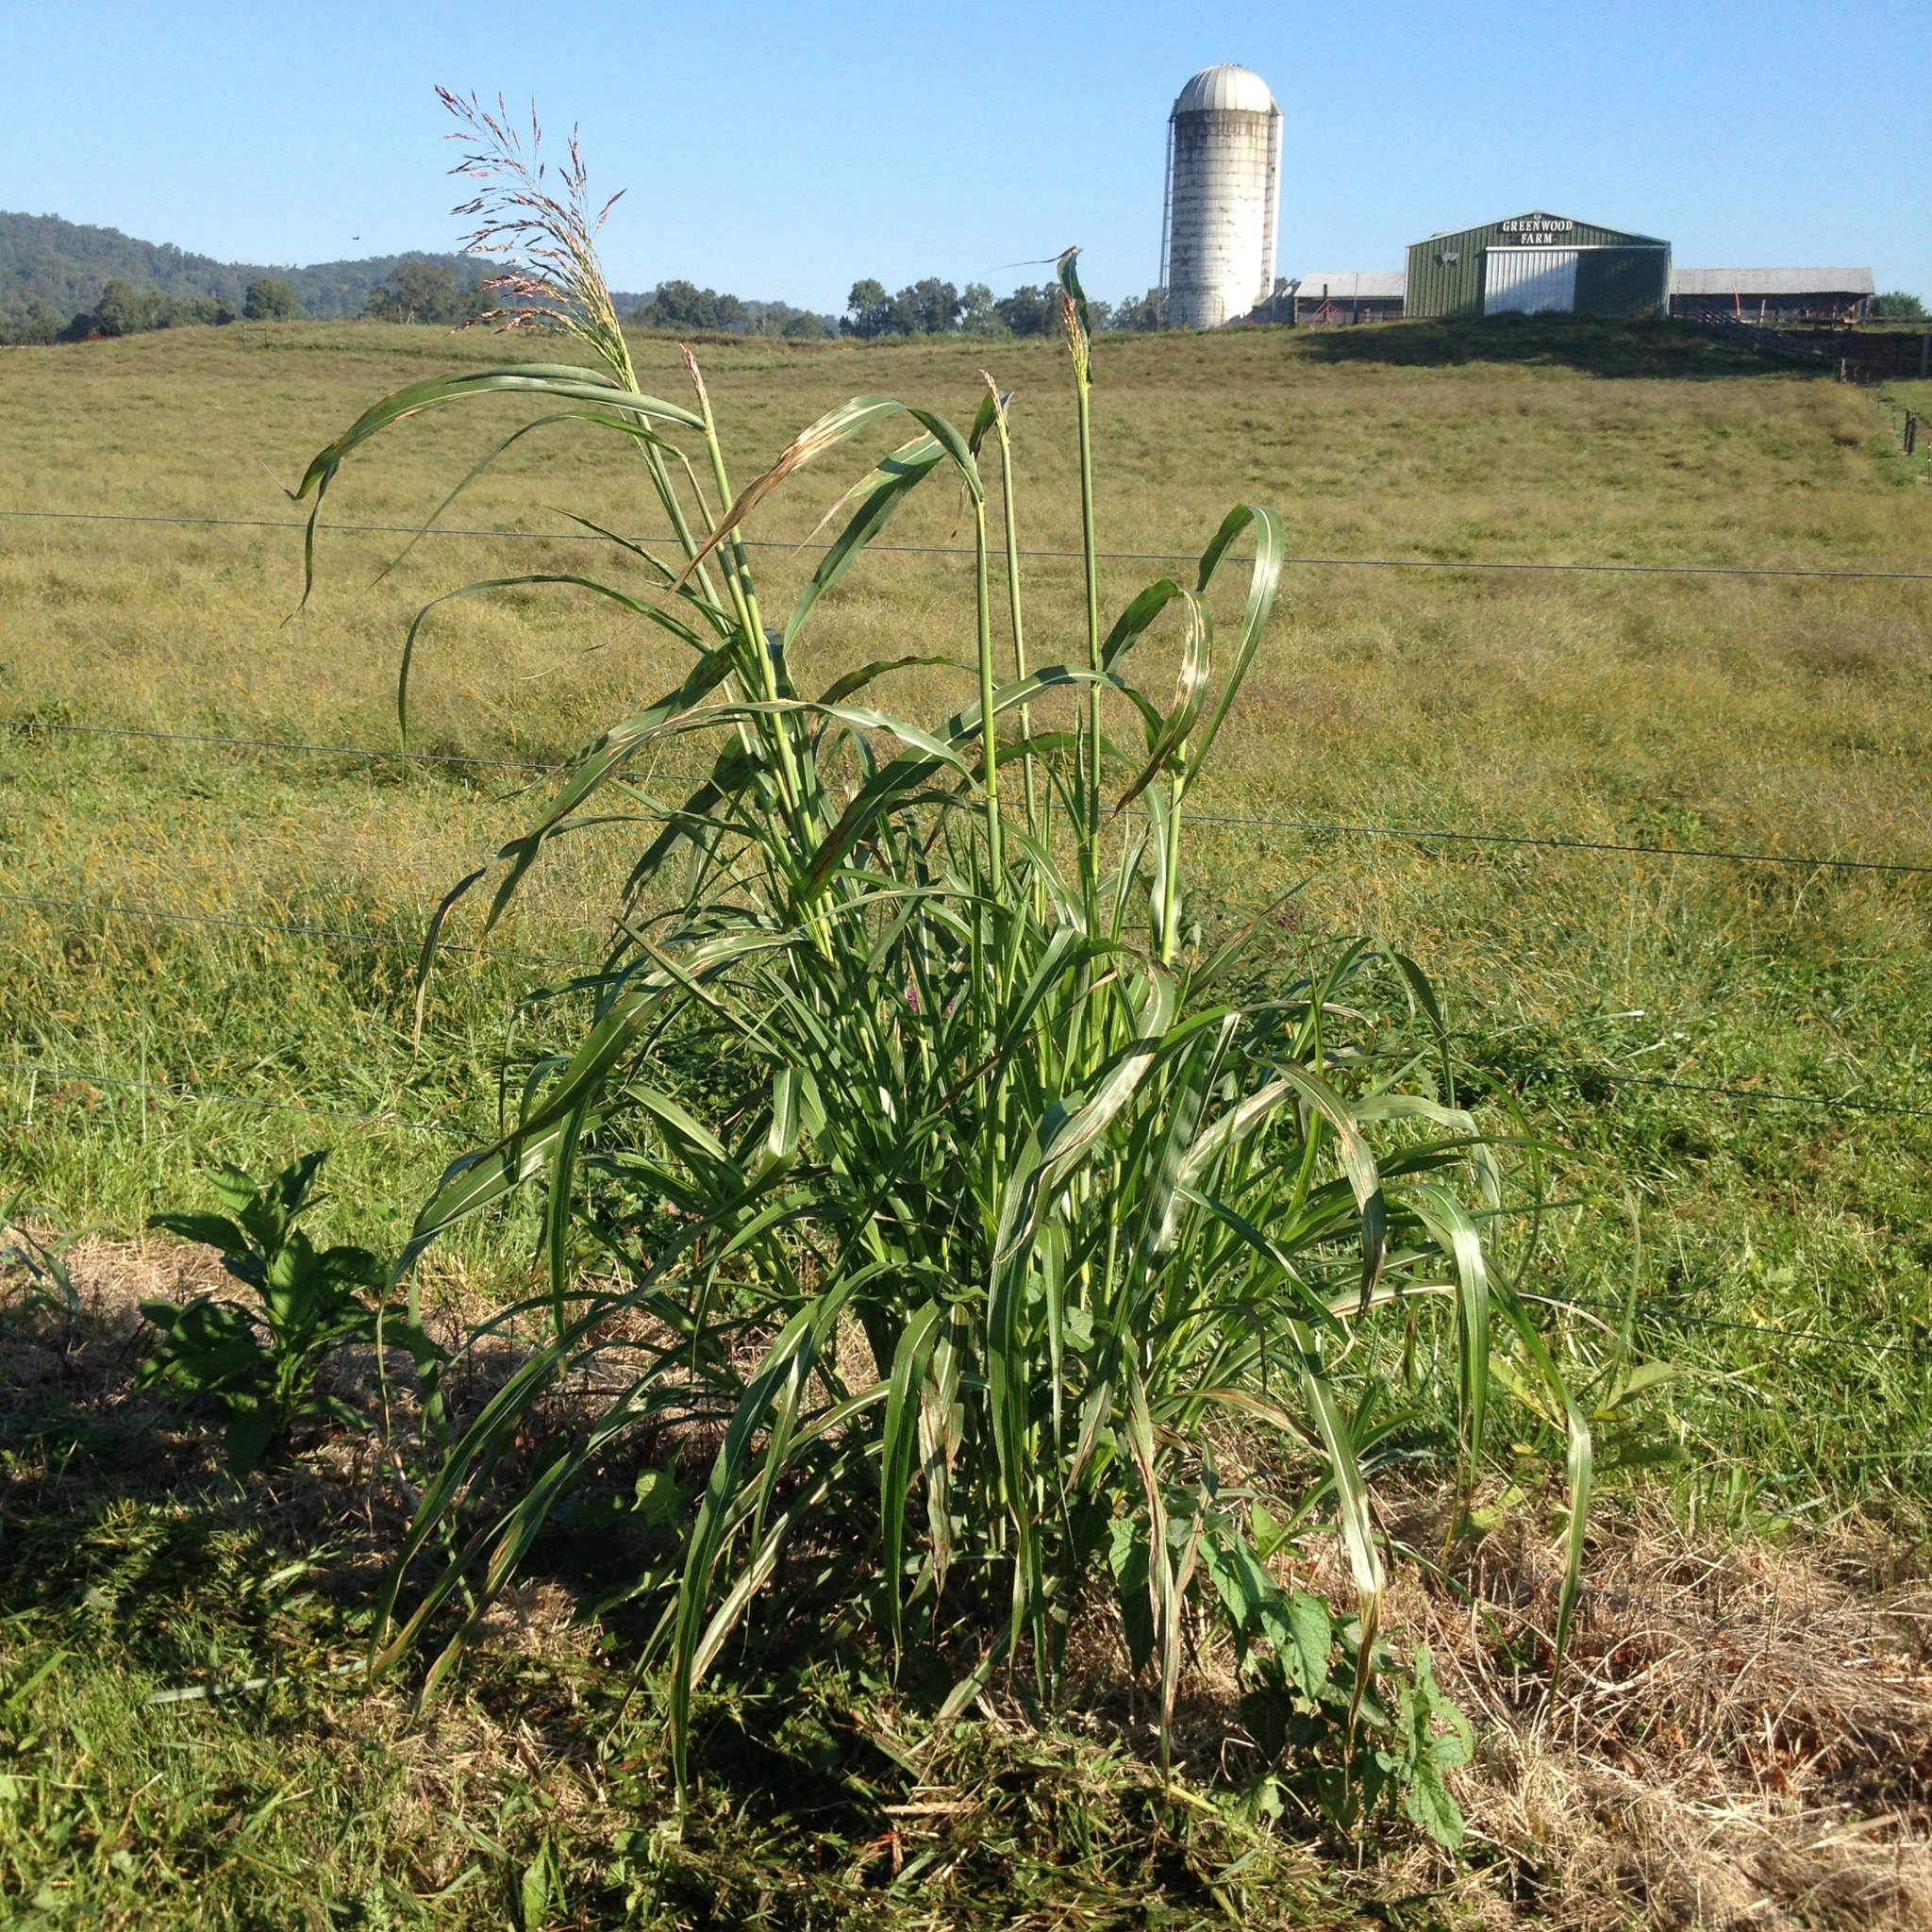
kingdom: Plantae
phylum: Tracheophyta
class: Liliopsida
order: Poales
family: Poaceae
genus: Sorghum
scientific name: Sorghum halepense
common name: Johnson-grass
